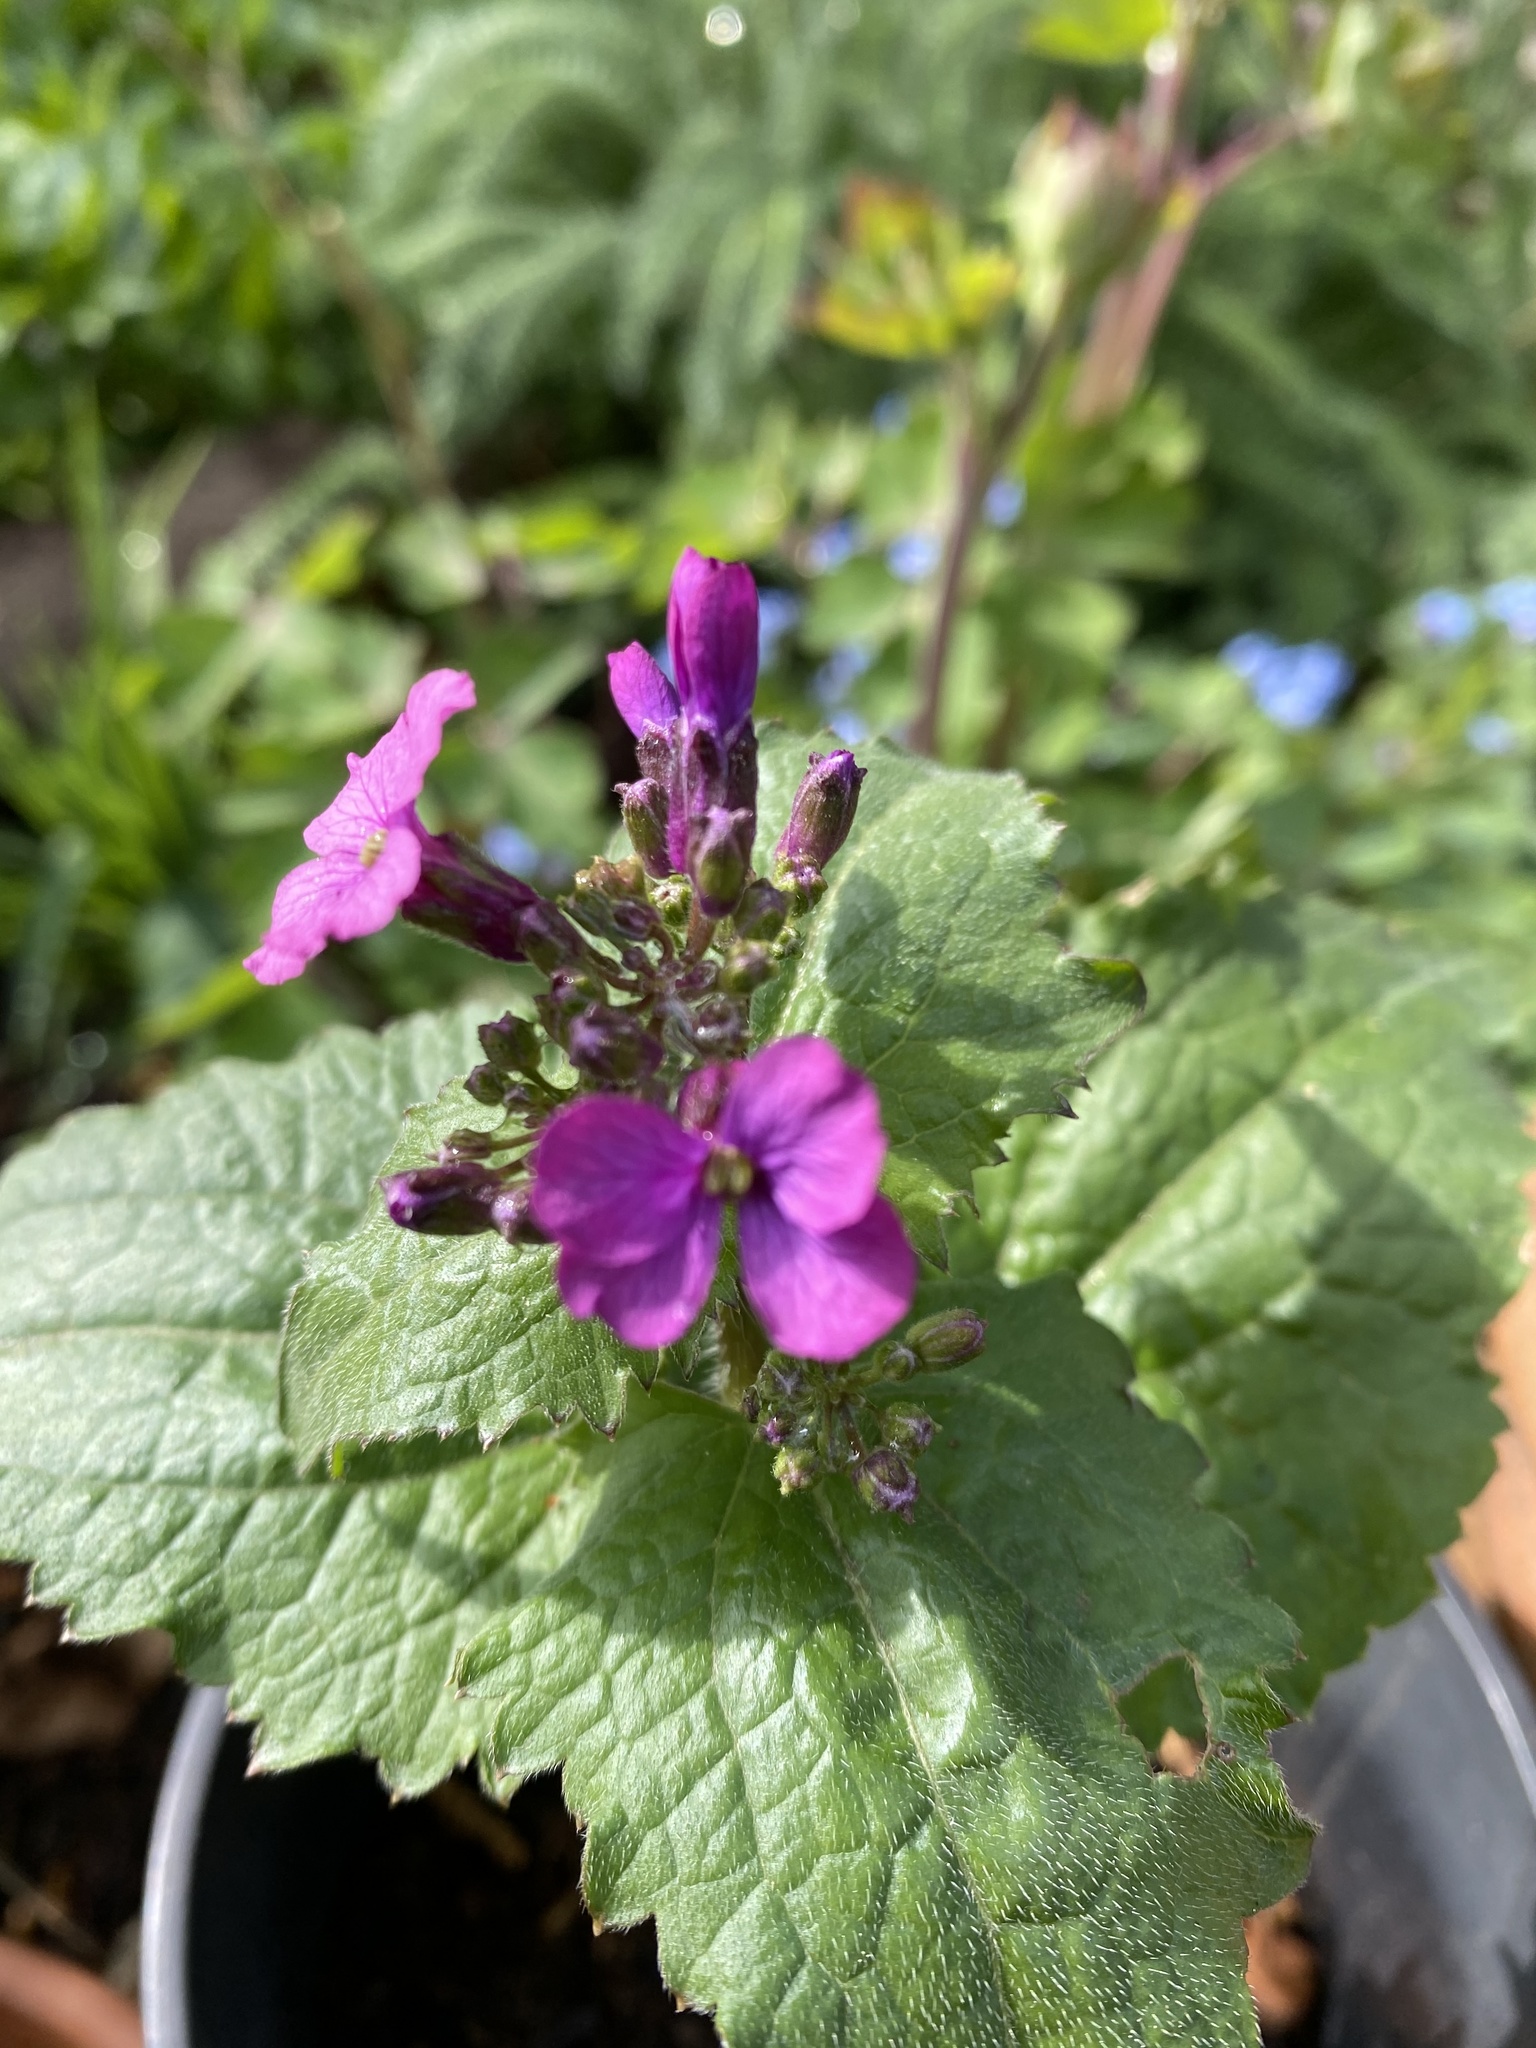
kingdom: Plantae
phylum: Tracheophyta
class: Magnoliopsida
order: Brassicales
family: Brassicaceae
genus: Lunaria
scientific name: Lunaria annua
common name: Honesty
